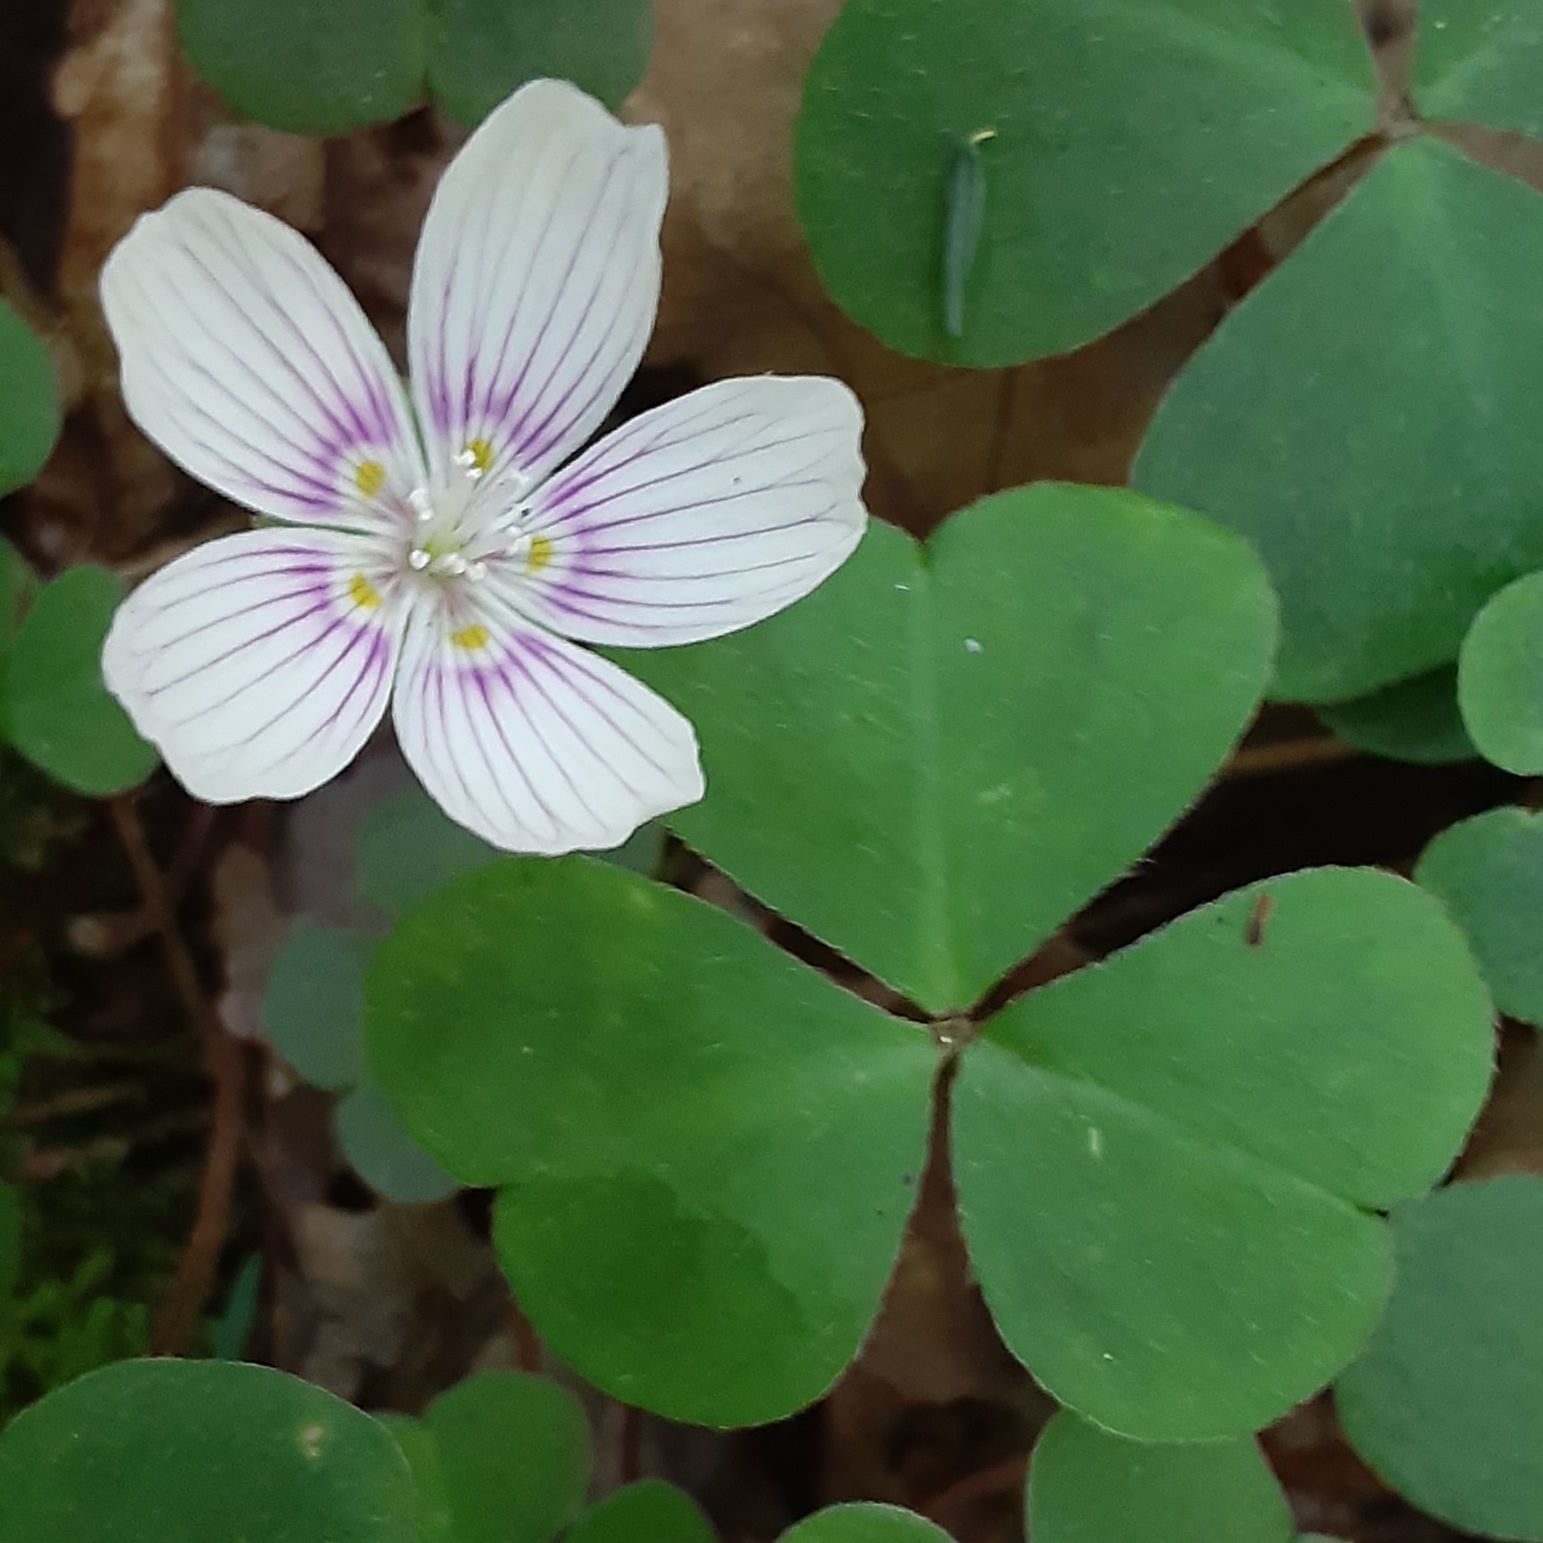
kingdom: Plantae
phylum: Tracheophyta
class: Magnoliopsida
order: Oxalidales
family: Oxalidaceae
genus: Oxalis
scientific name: Oxalis montana
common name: American wood-sorrel
